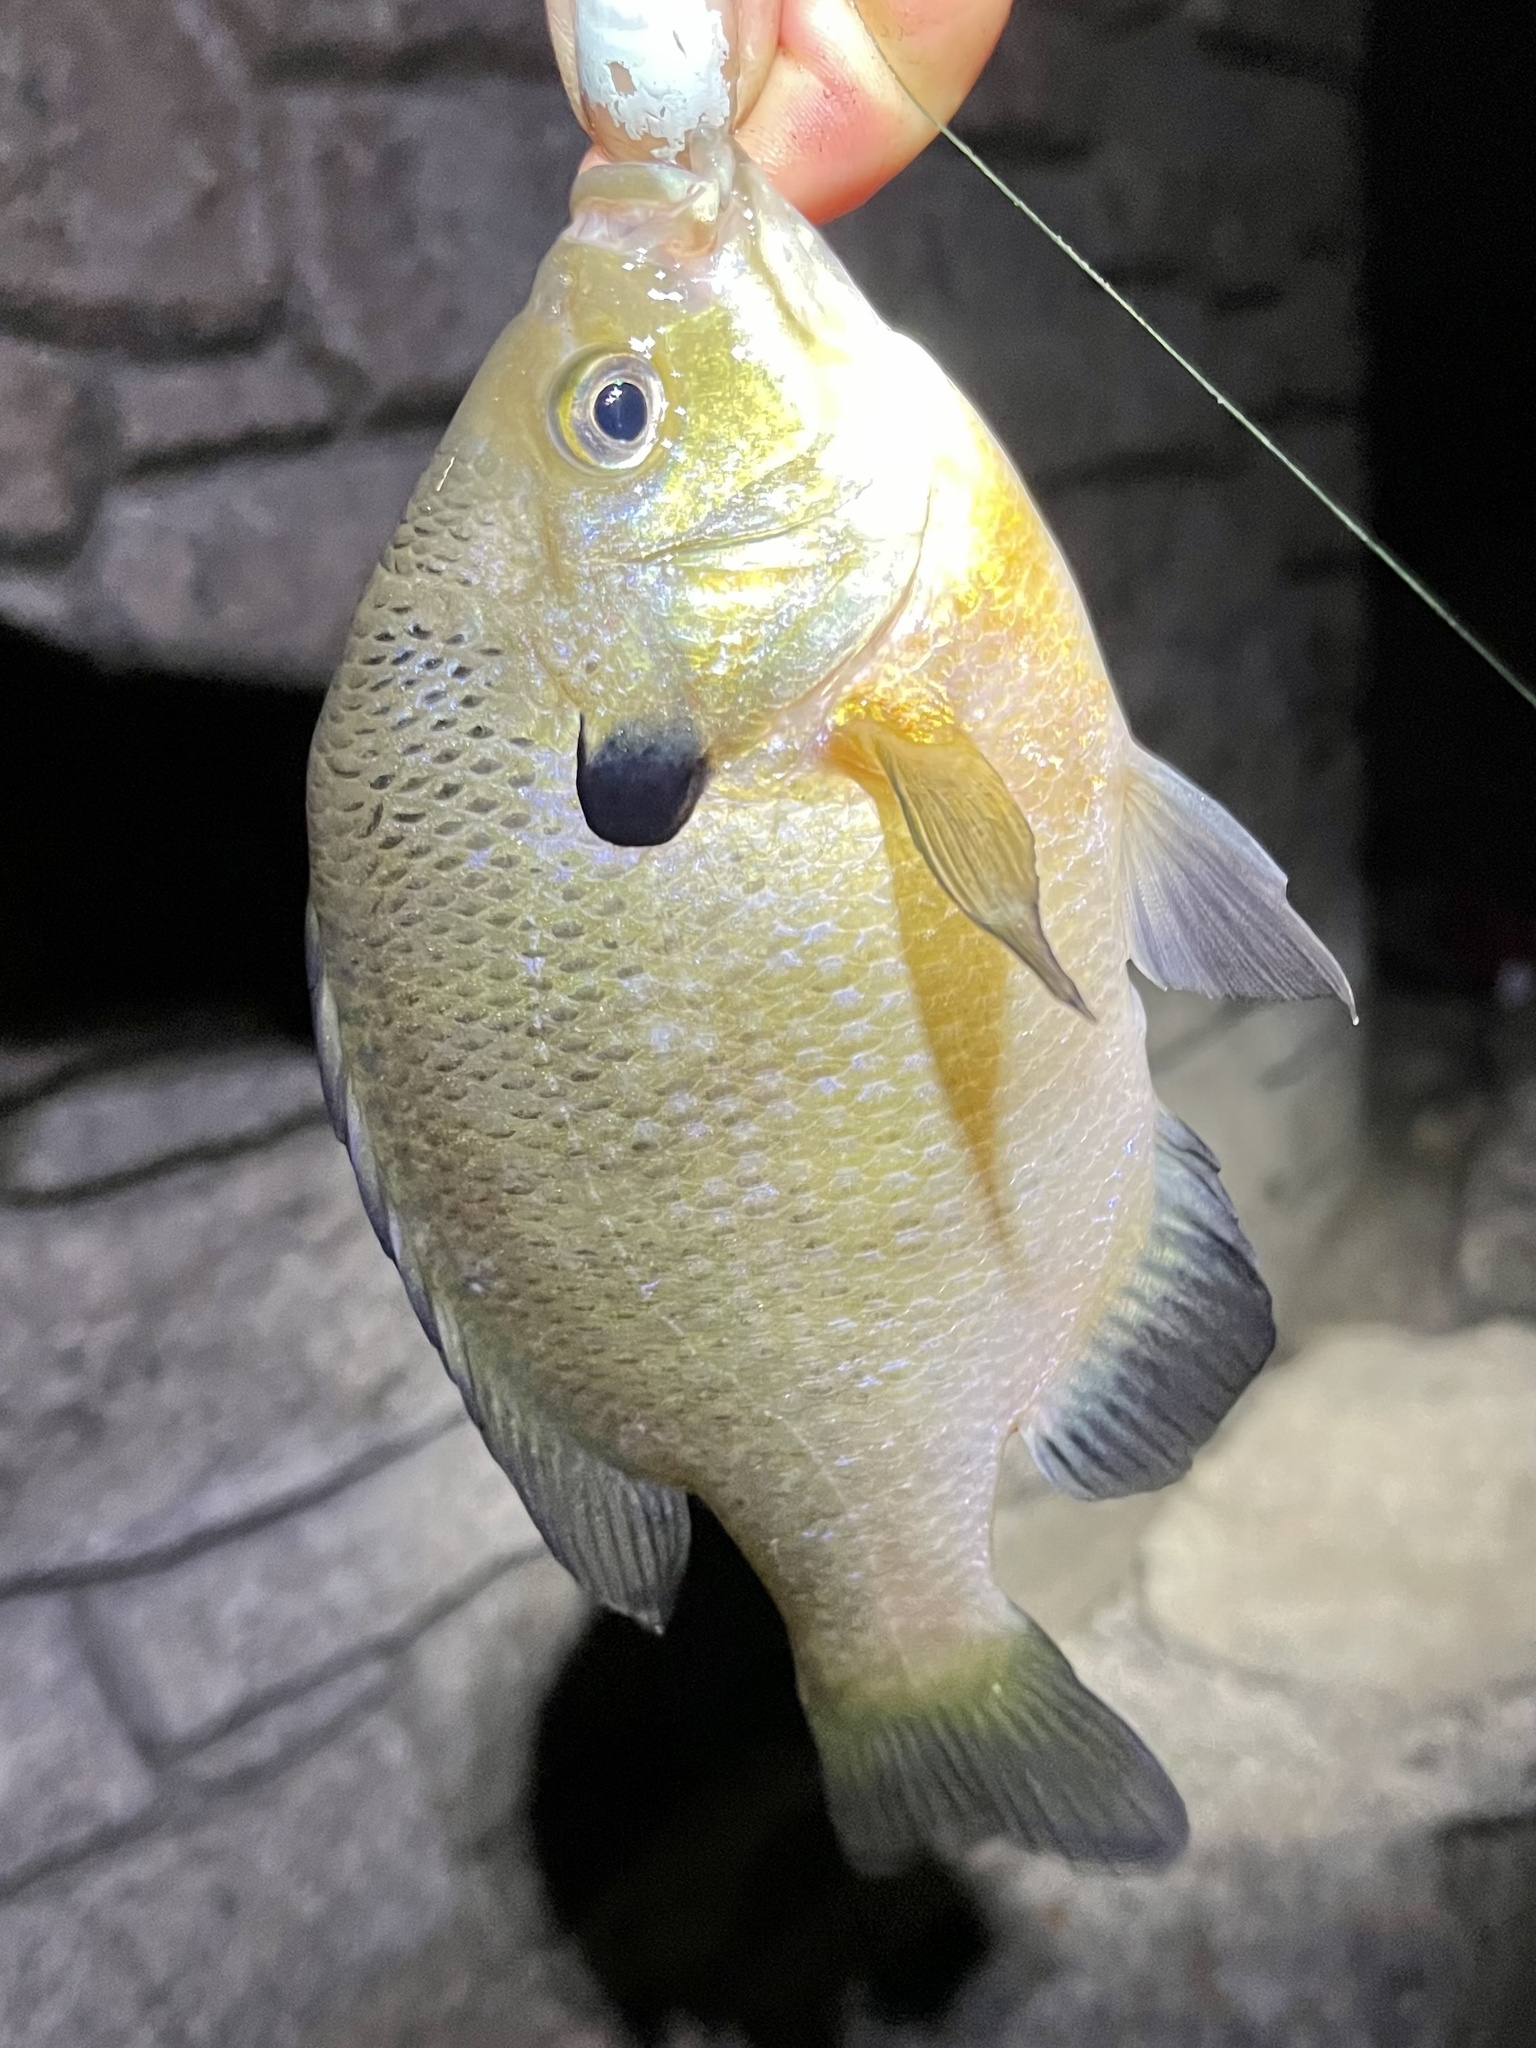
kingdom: Animalia
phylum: Chordata
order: Perciformes
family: Centrarchidae
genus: Lepomis
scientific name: Lepomis macrochirus
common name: Bluegill
